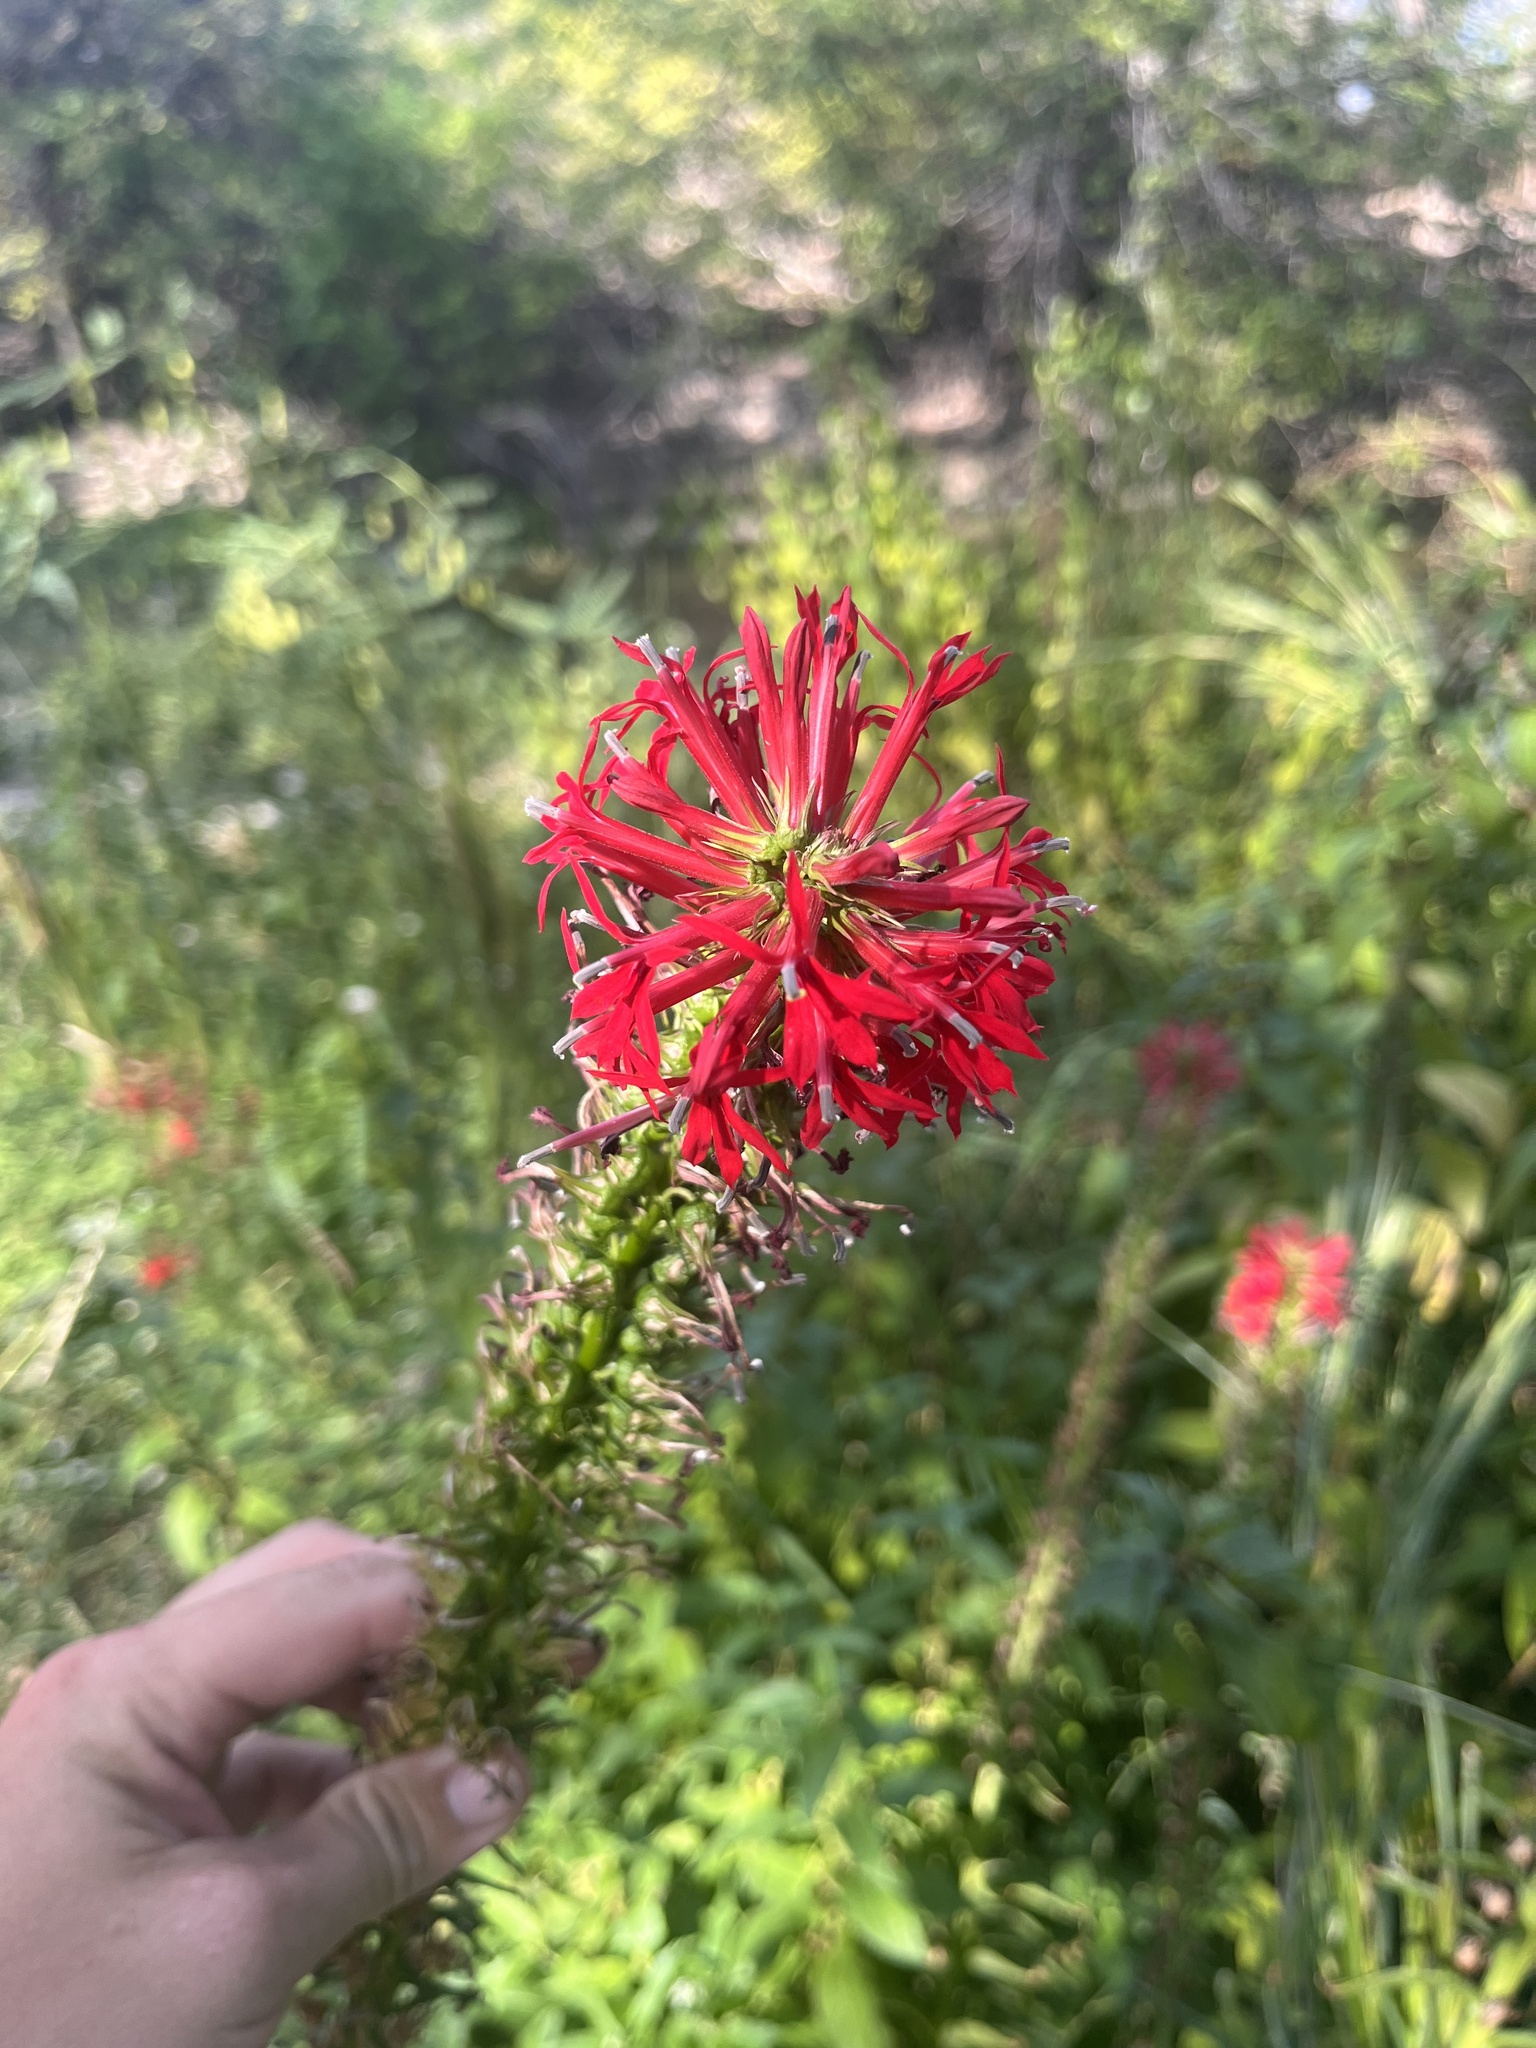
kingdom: Plantae
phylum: Tracheophyta
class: Magnoliopsida
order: Asterales
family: Campanulaceae
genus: Lobelia
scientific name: Lobelia cardinalis
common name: Cardinal flower
